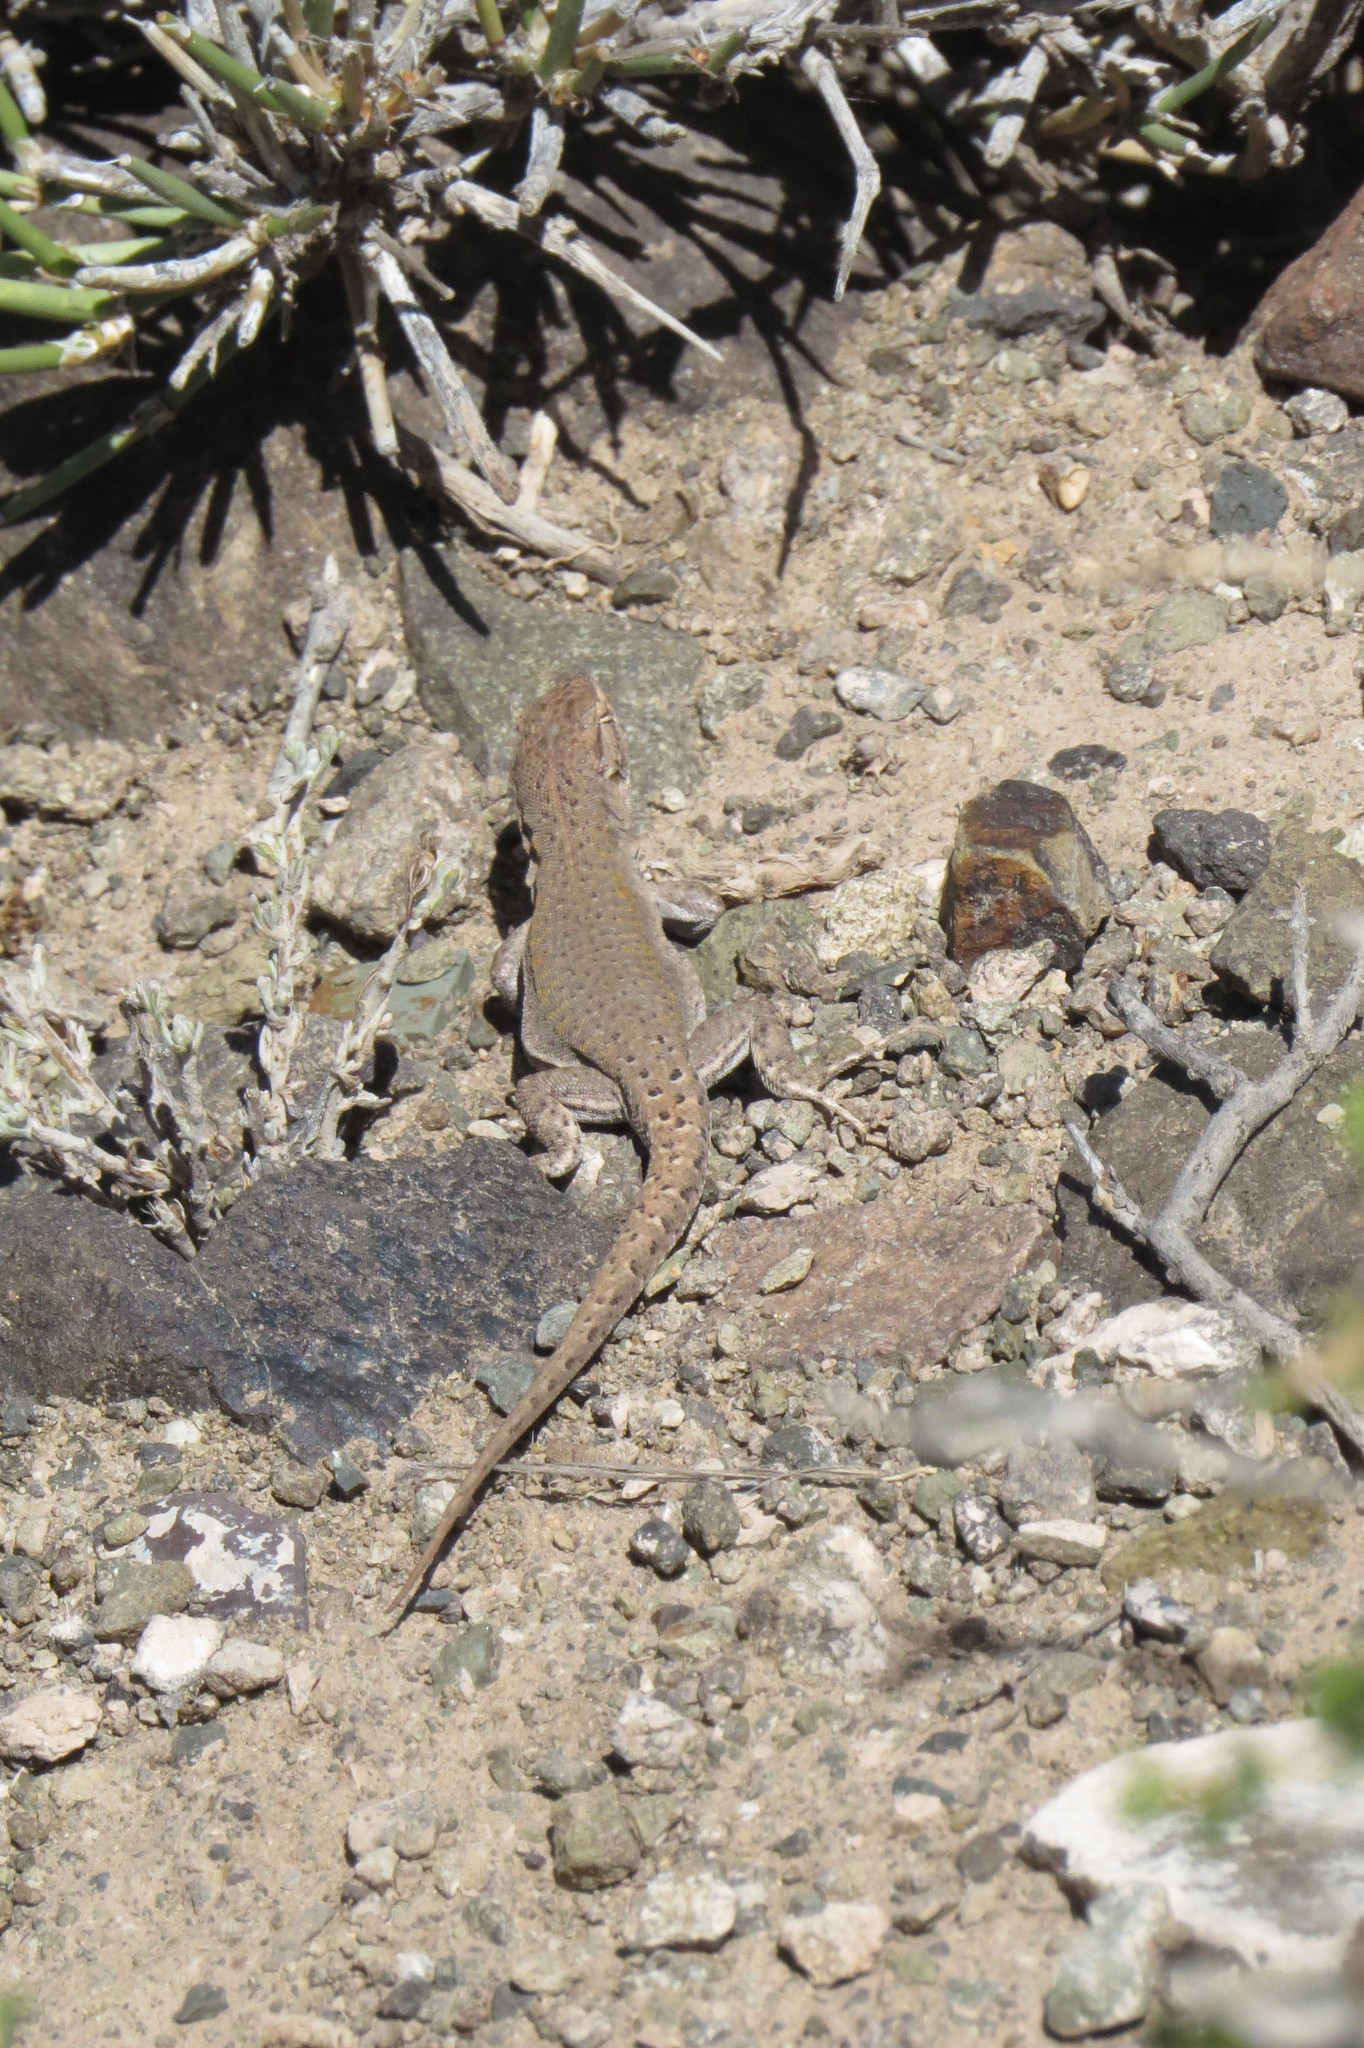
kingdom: Animalia
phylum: Chordata
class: Squamata
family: Liolaemidae
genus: Liolaemus
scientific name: Liolaemus ruibali
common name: Ruibal's tree iguana
